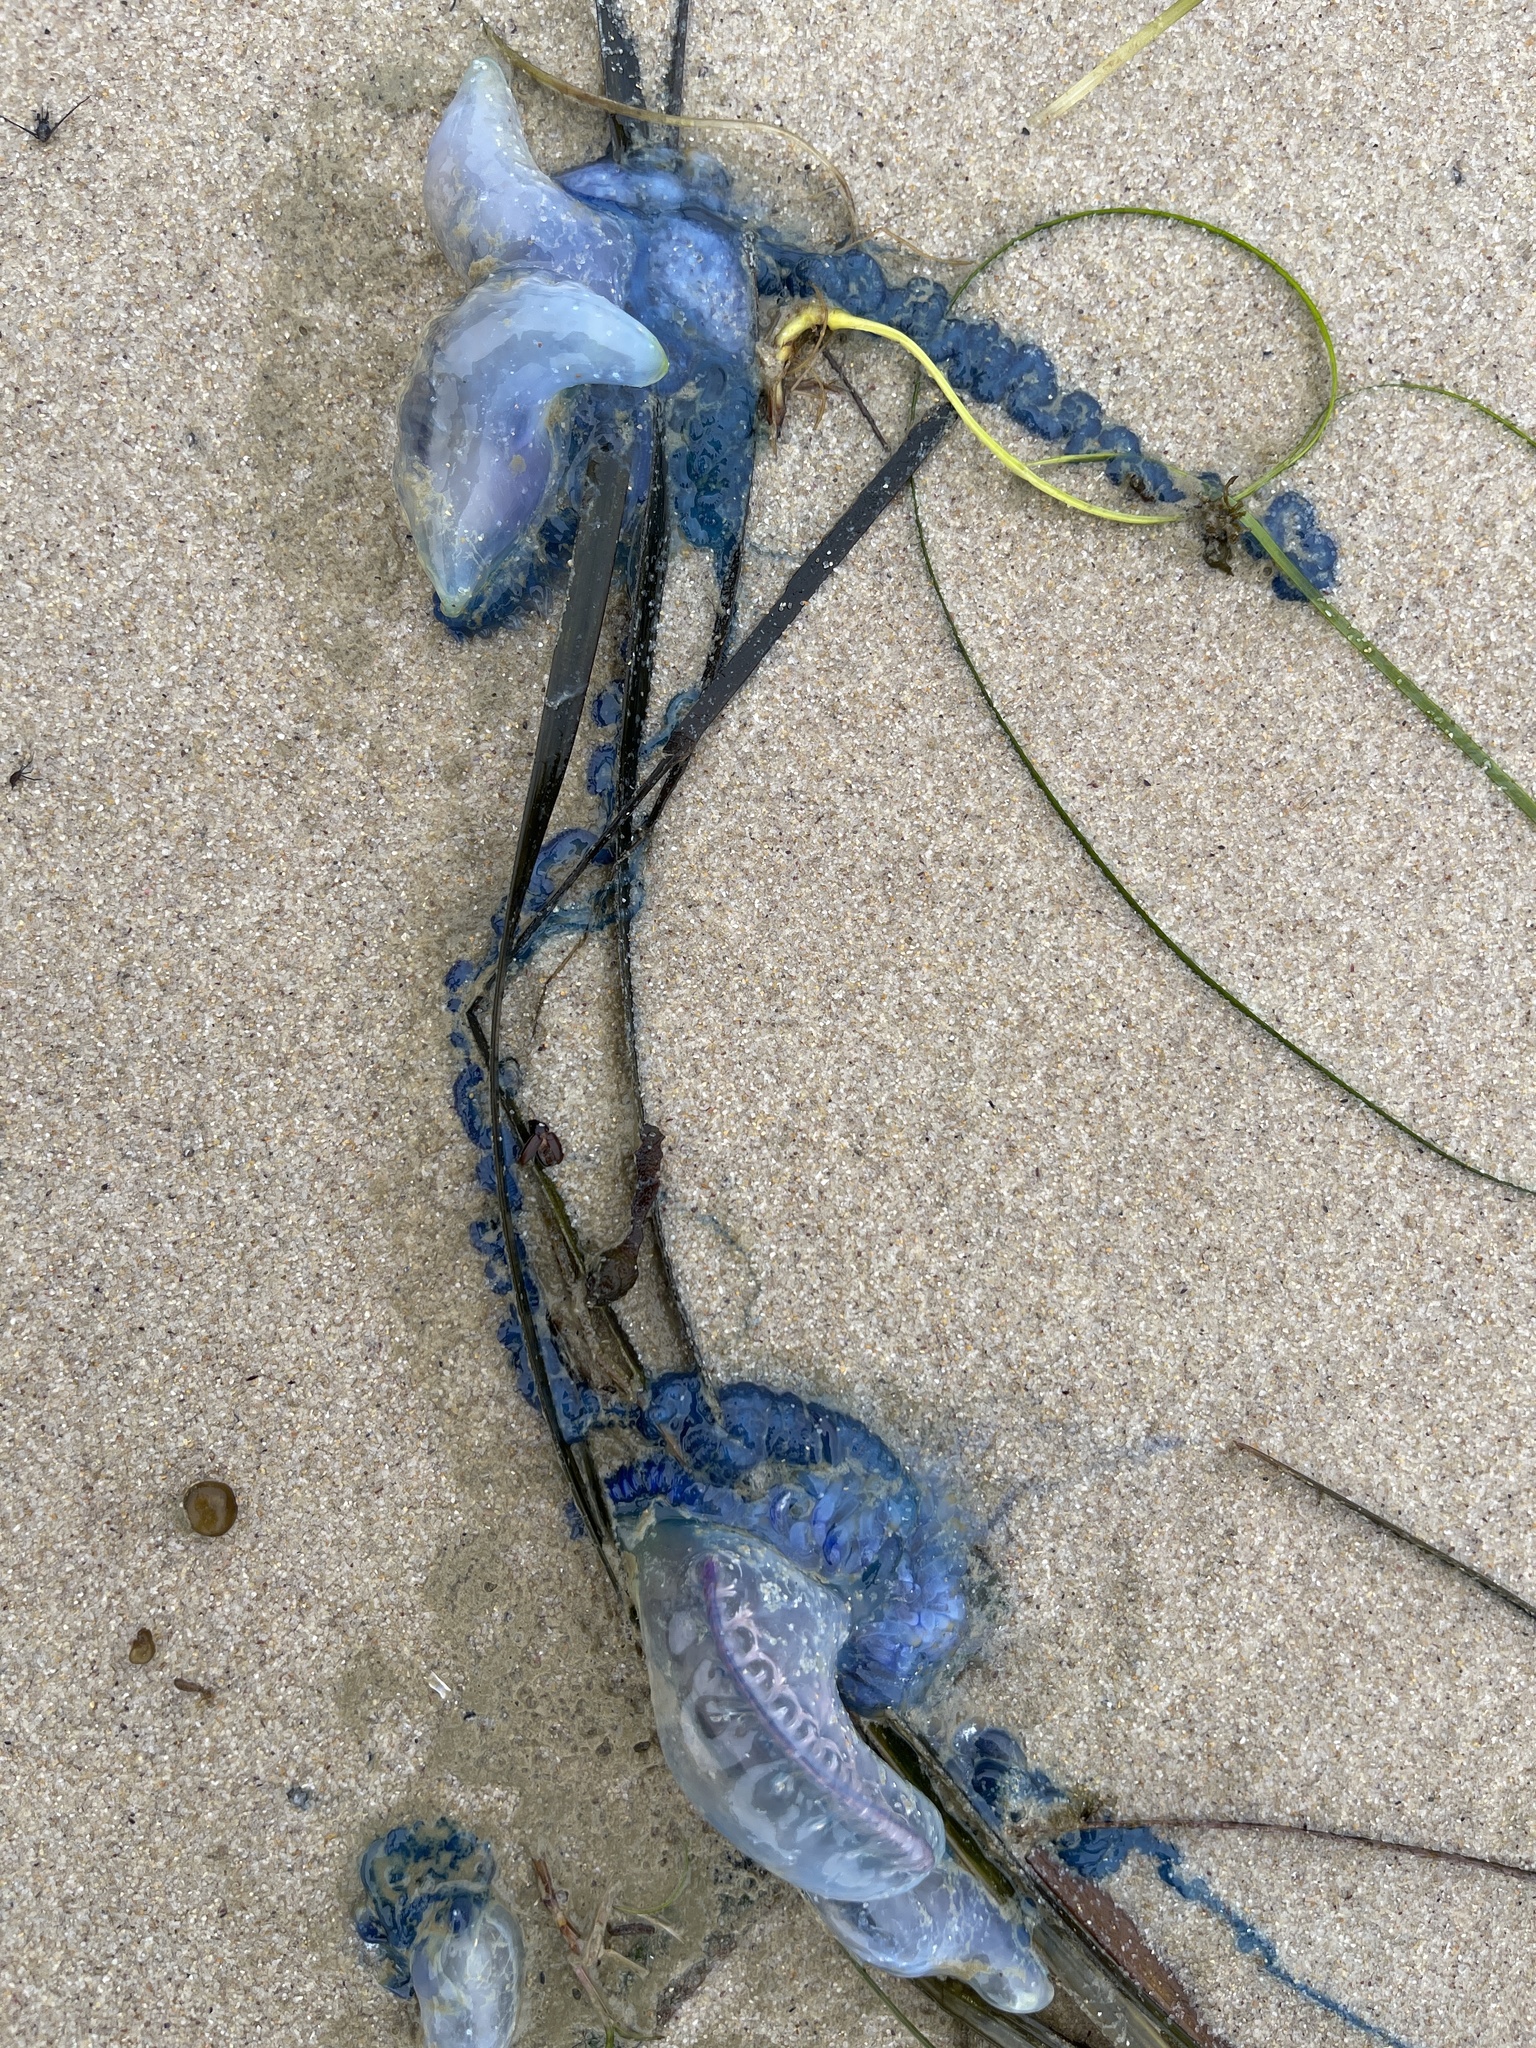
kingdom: Animalia
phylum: Cnidaria
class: Hydrozoa
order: Siphonophorae
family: Physaliidae
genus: Physalia
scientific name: Physalia physalis
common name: Portuguese man-of-war
